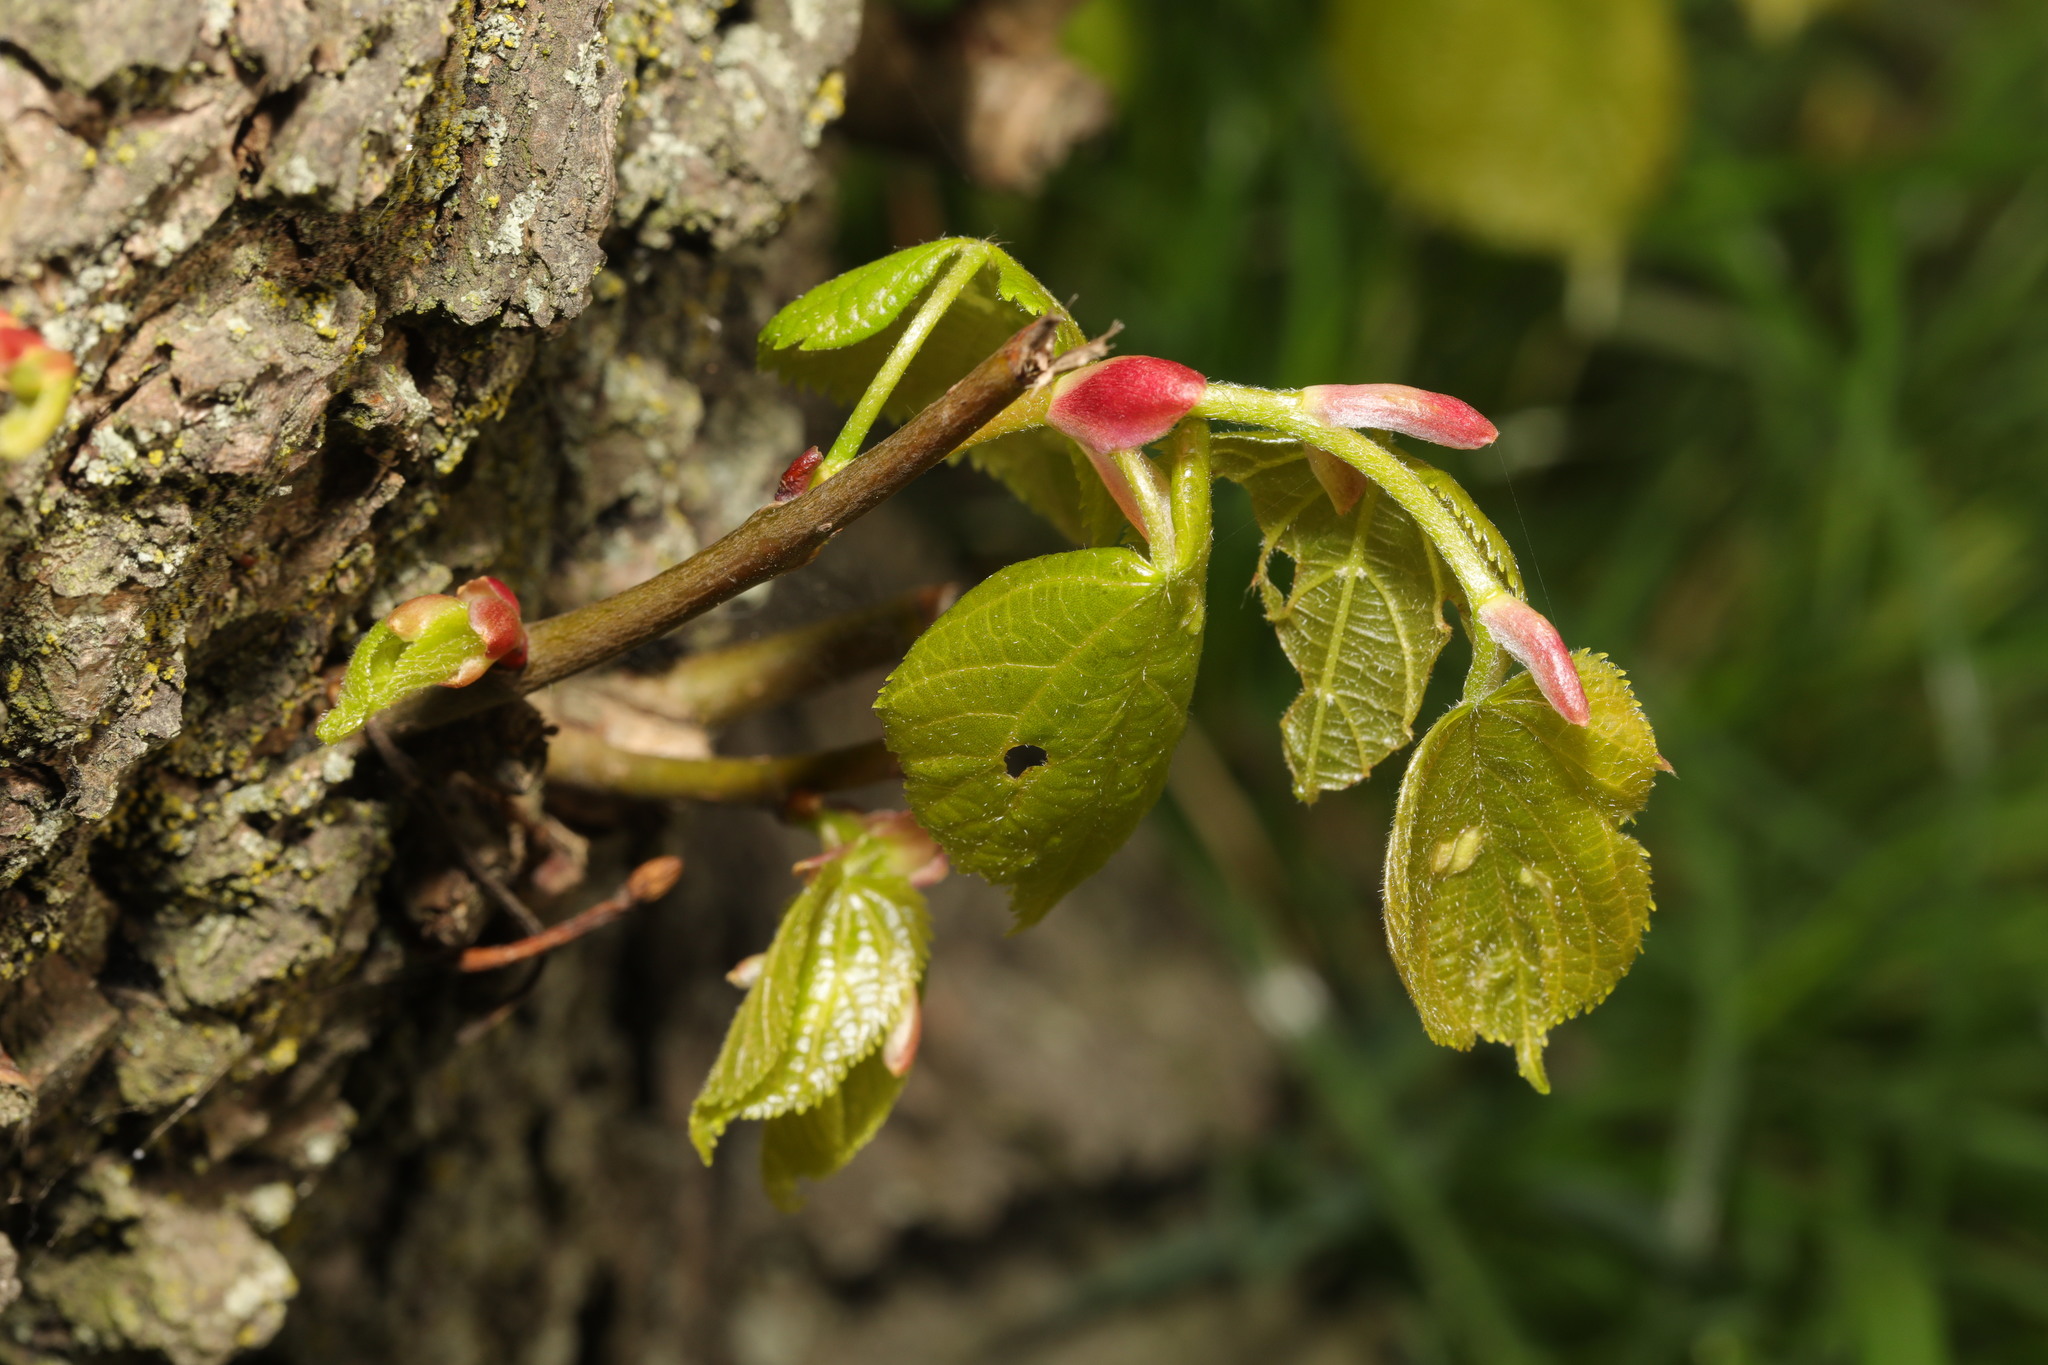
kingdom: Plantae
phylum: Tracheophyta
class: Magnoliopsida
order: Malvales
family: Malvaceae
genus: Tilia
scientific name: Tilia europaea
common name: European linden
